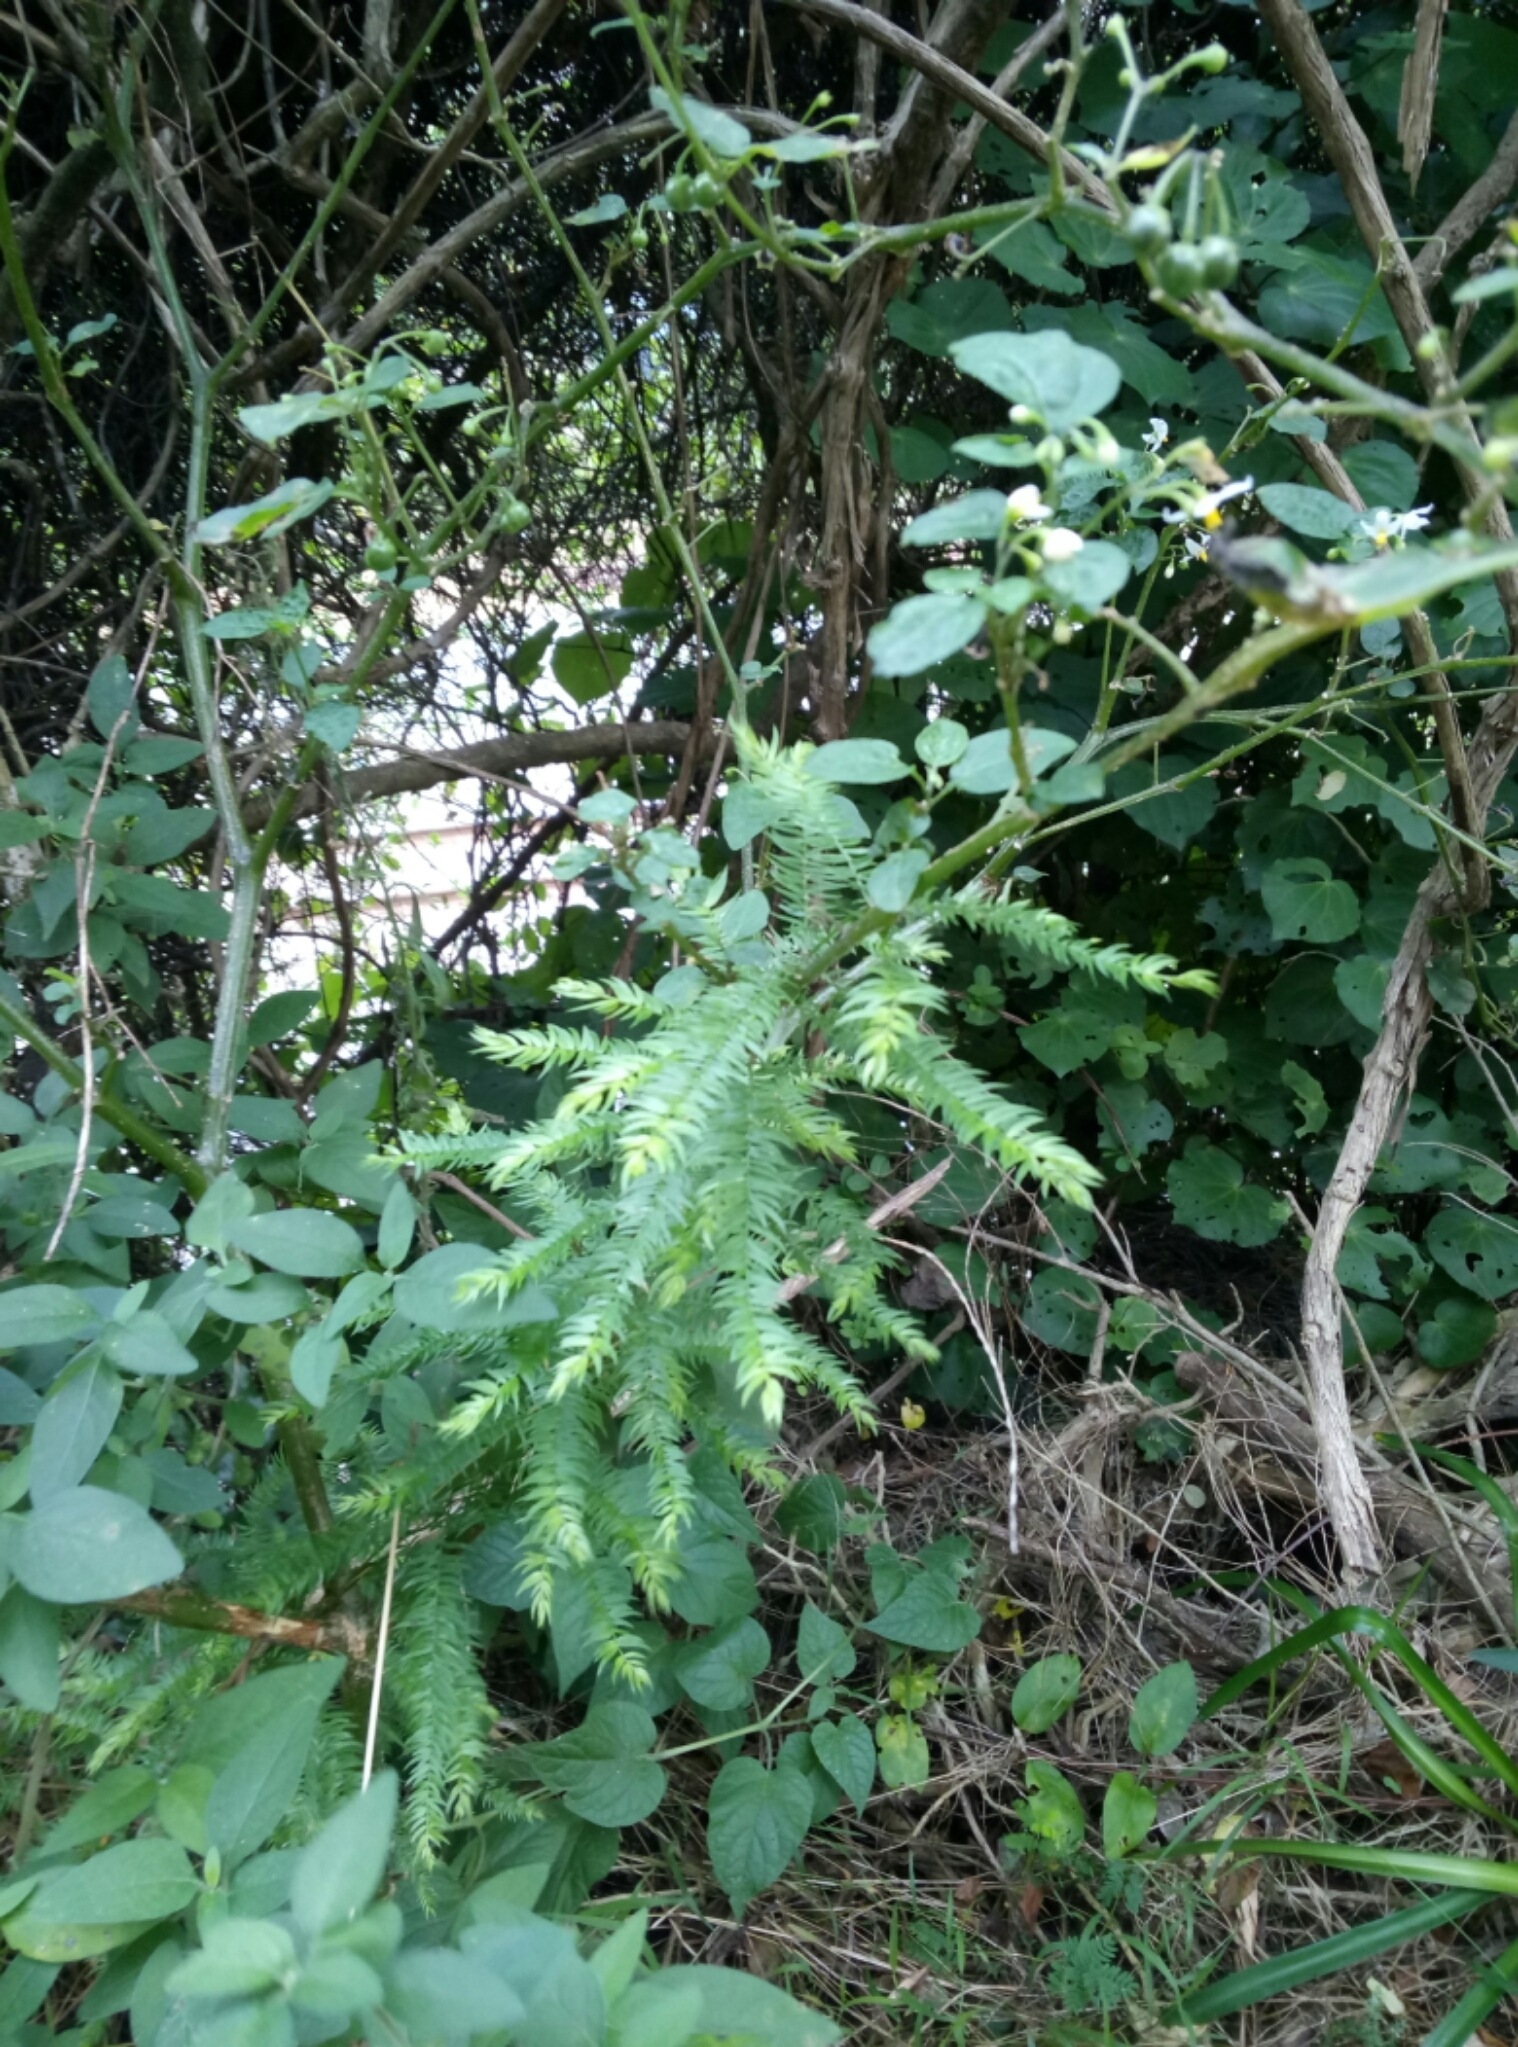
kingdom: Plantae
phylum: Tracheophyta
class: Liliopsida
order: Asparagales
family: Asparagaceae
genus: Asparagus
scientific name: Asparagus scandens
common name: Asparagus-fern
